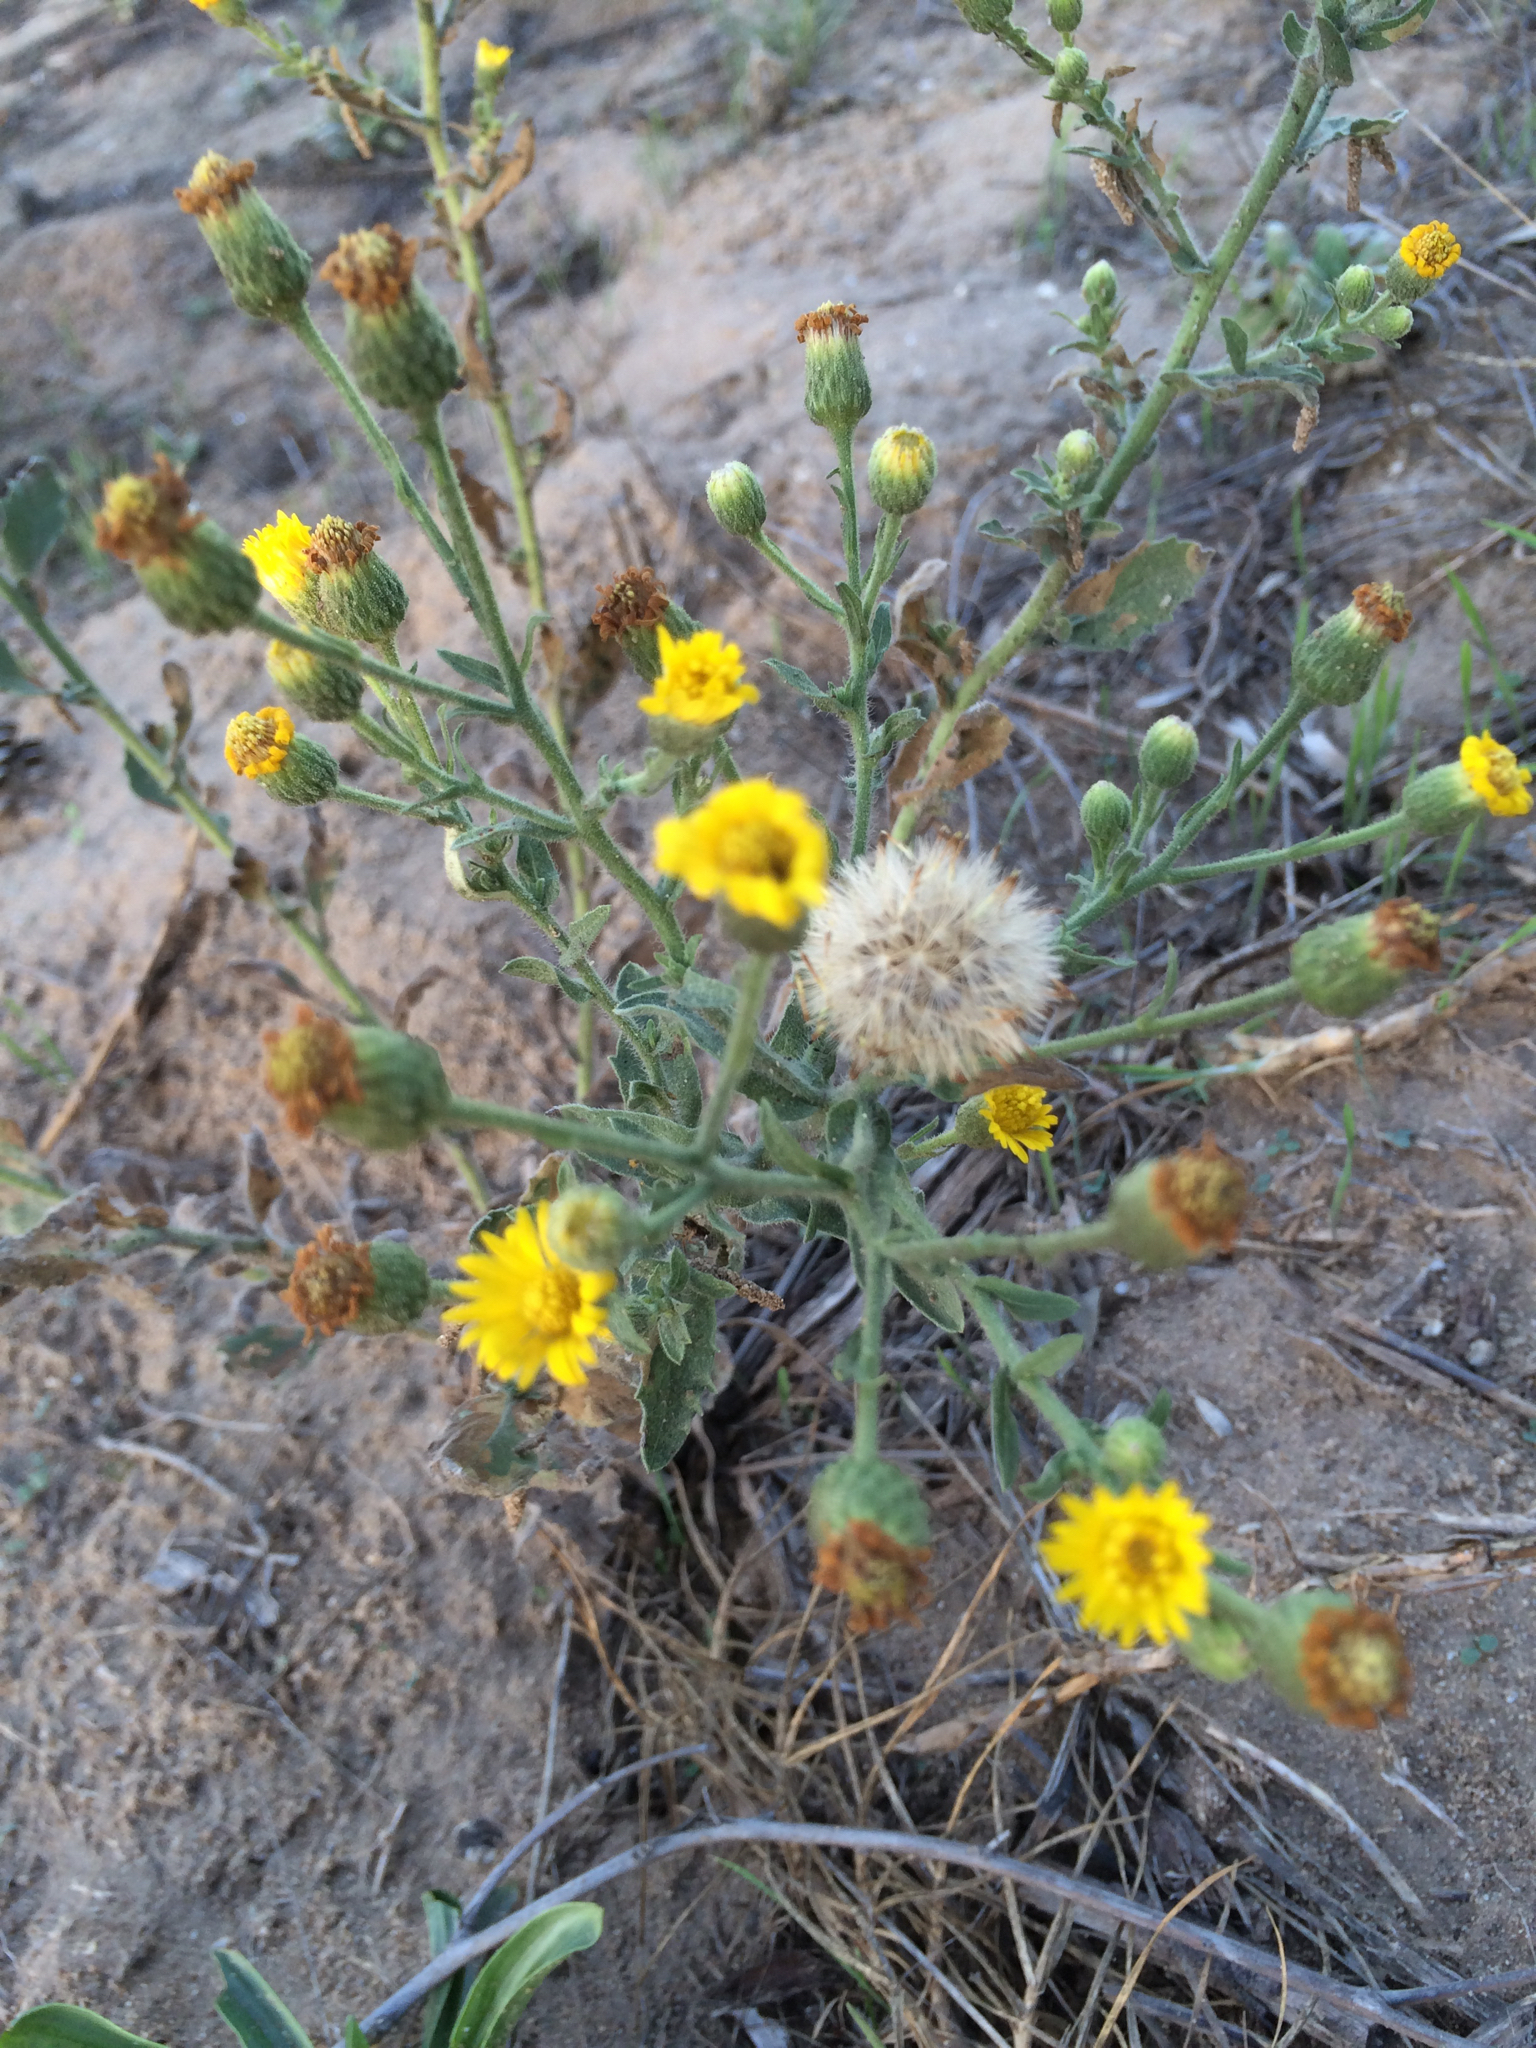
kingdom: Plantae
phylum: Tracheophyta
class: Magnoliopsida
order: Asterales
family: Asteraceae
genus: Heterotheca
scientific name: Heterotheca grandiflora
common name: Telegraphweed
